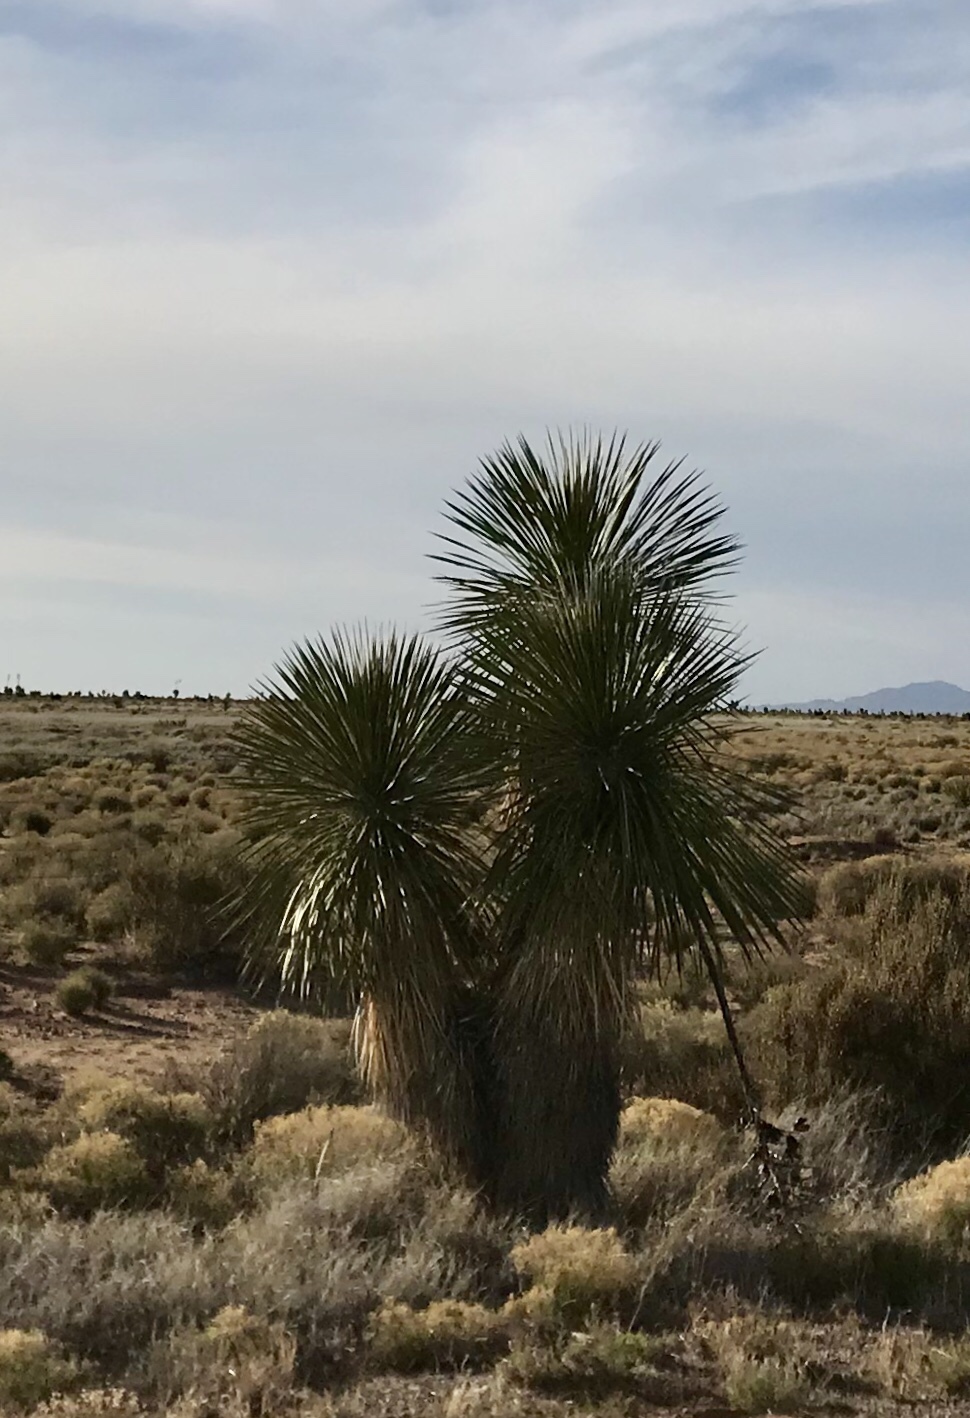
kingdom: Plantae
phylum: Tracheophyta
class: Liliopsida
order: Asparagales
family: Asparagaceae
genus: Yucca
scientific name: Yucca elata
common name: Palmella
